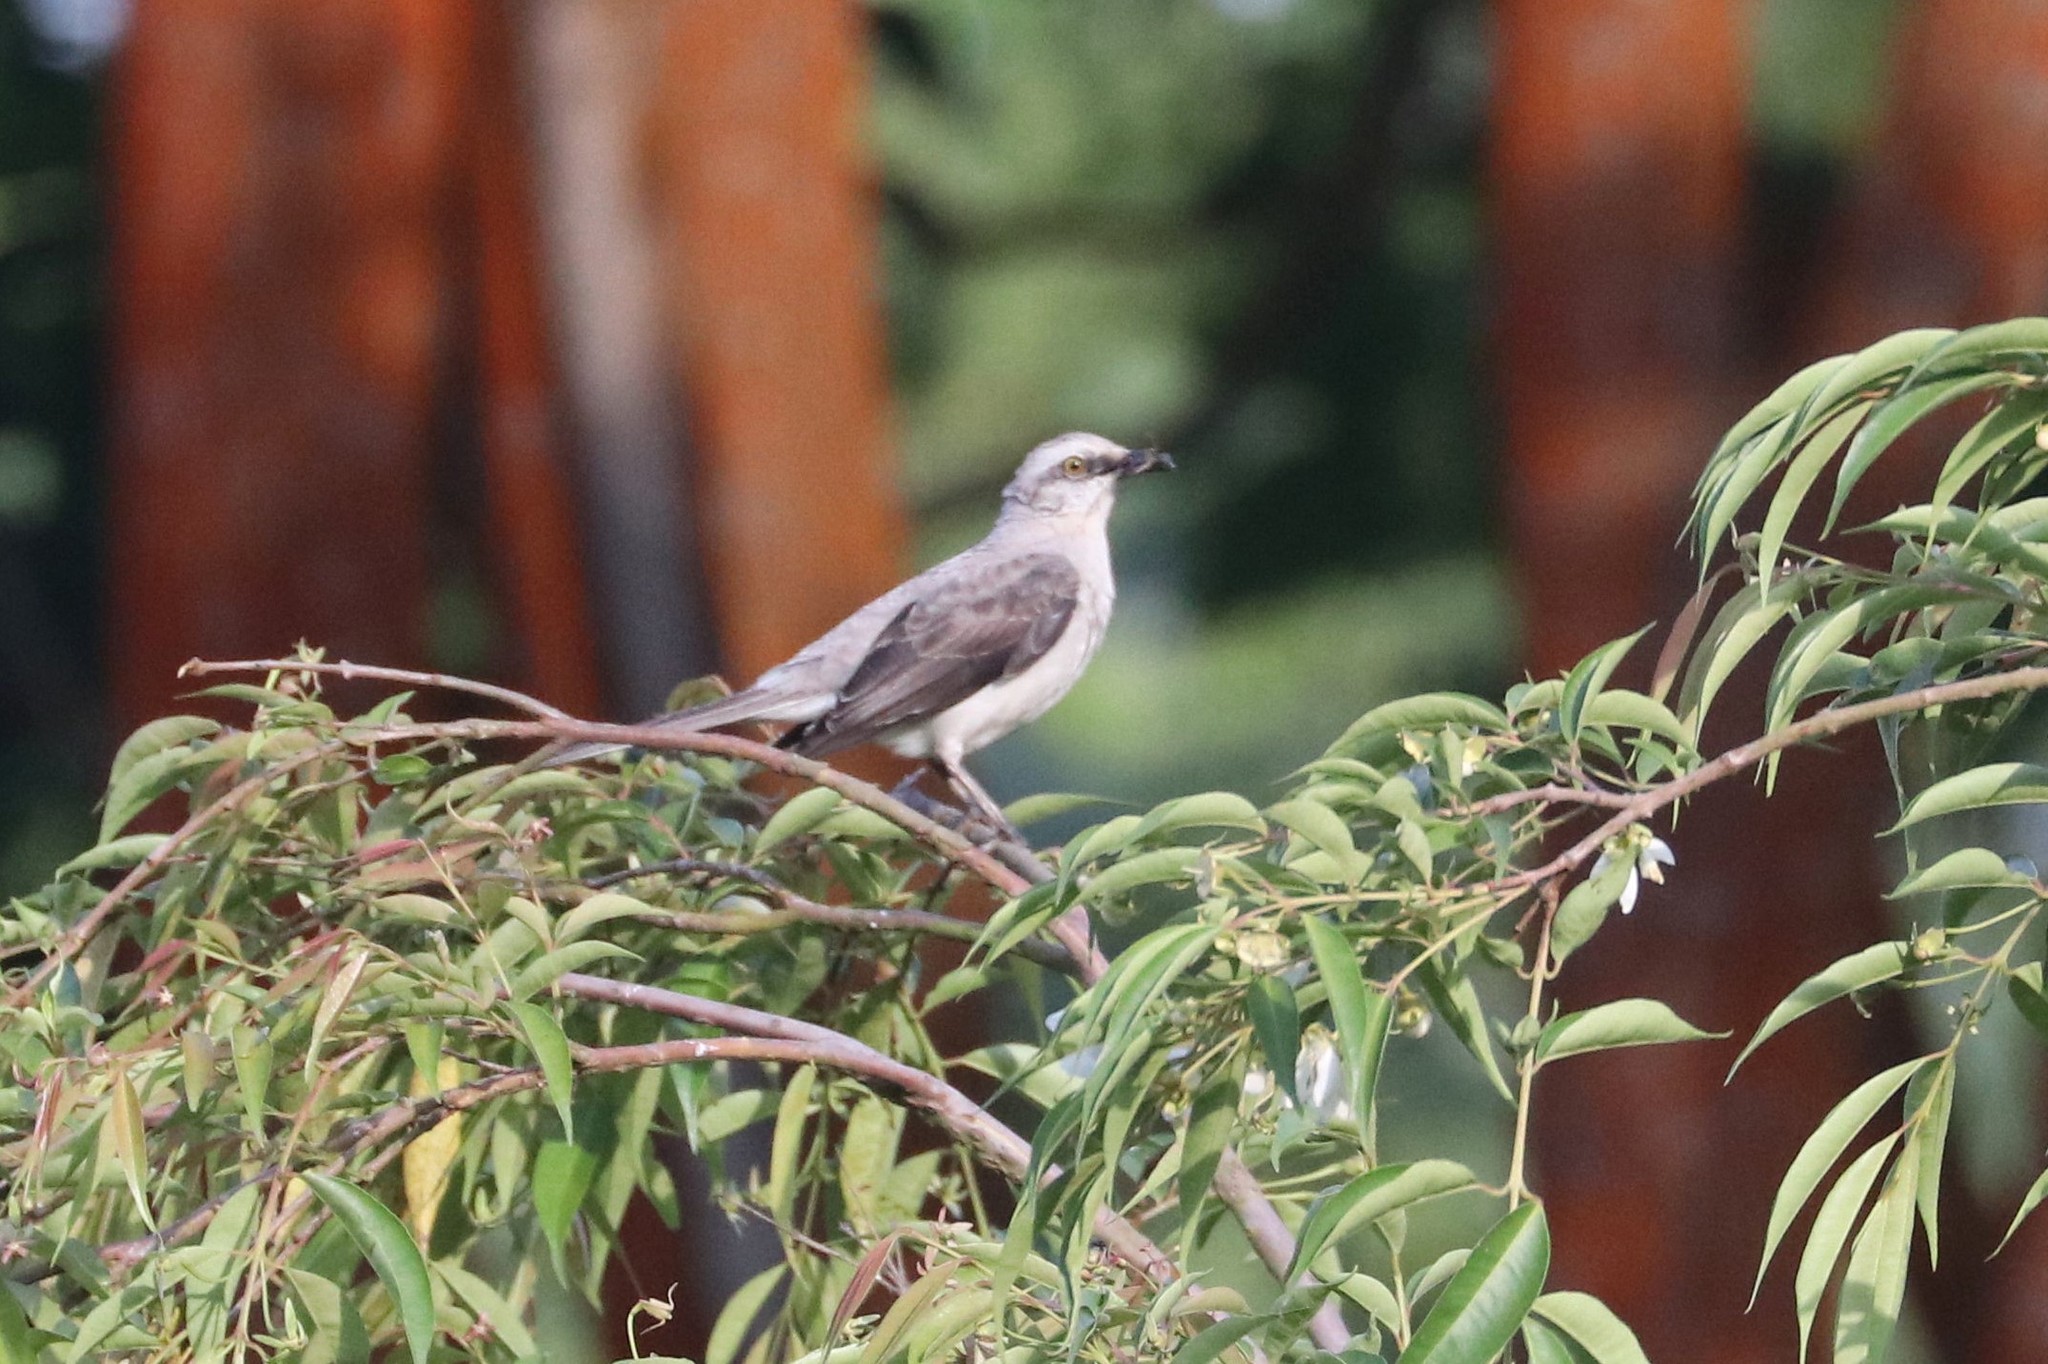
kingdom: Animalia
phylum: Chordata
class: Aves
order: Passeriformes
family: Mimidae
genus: Mimus
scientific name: Mimus gilvus
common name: Tropical mockingbird
